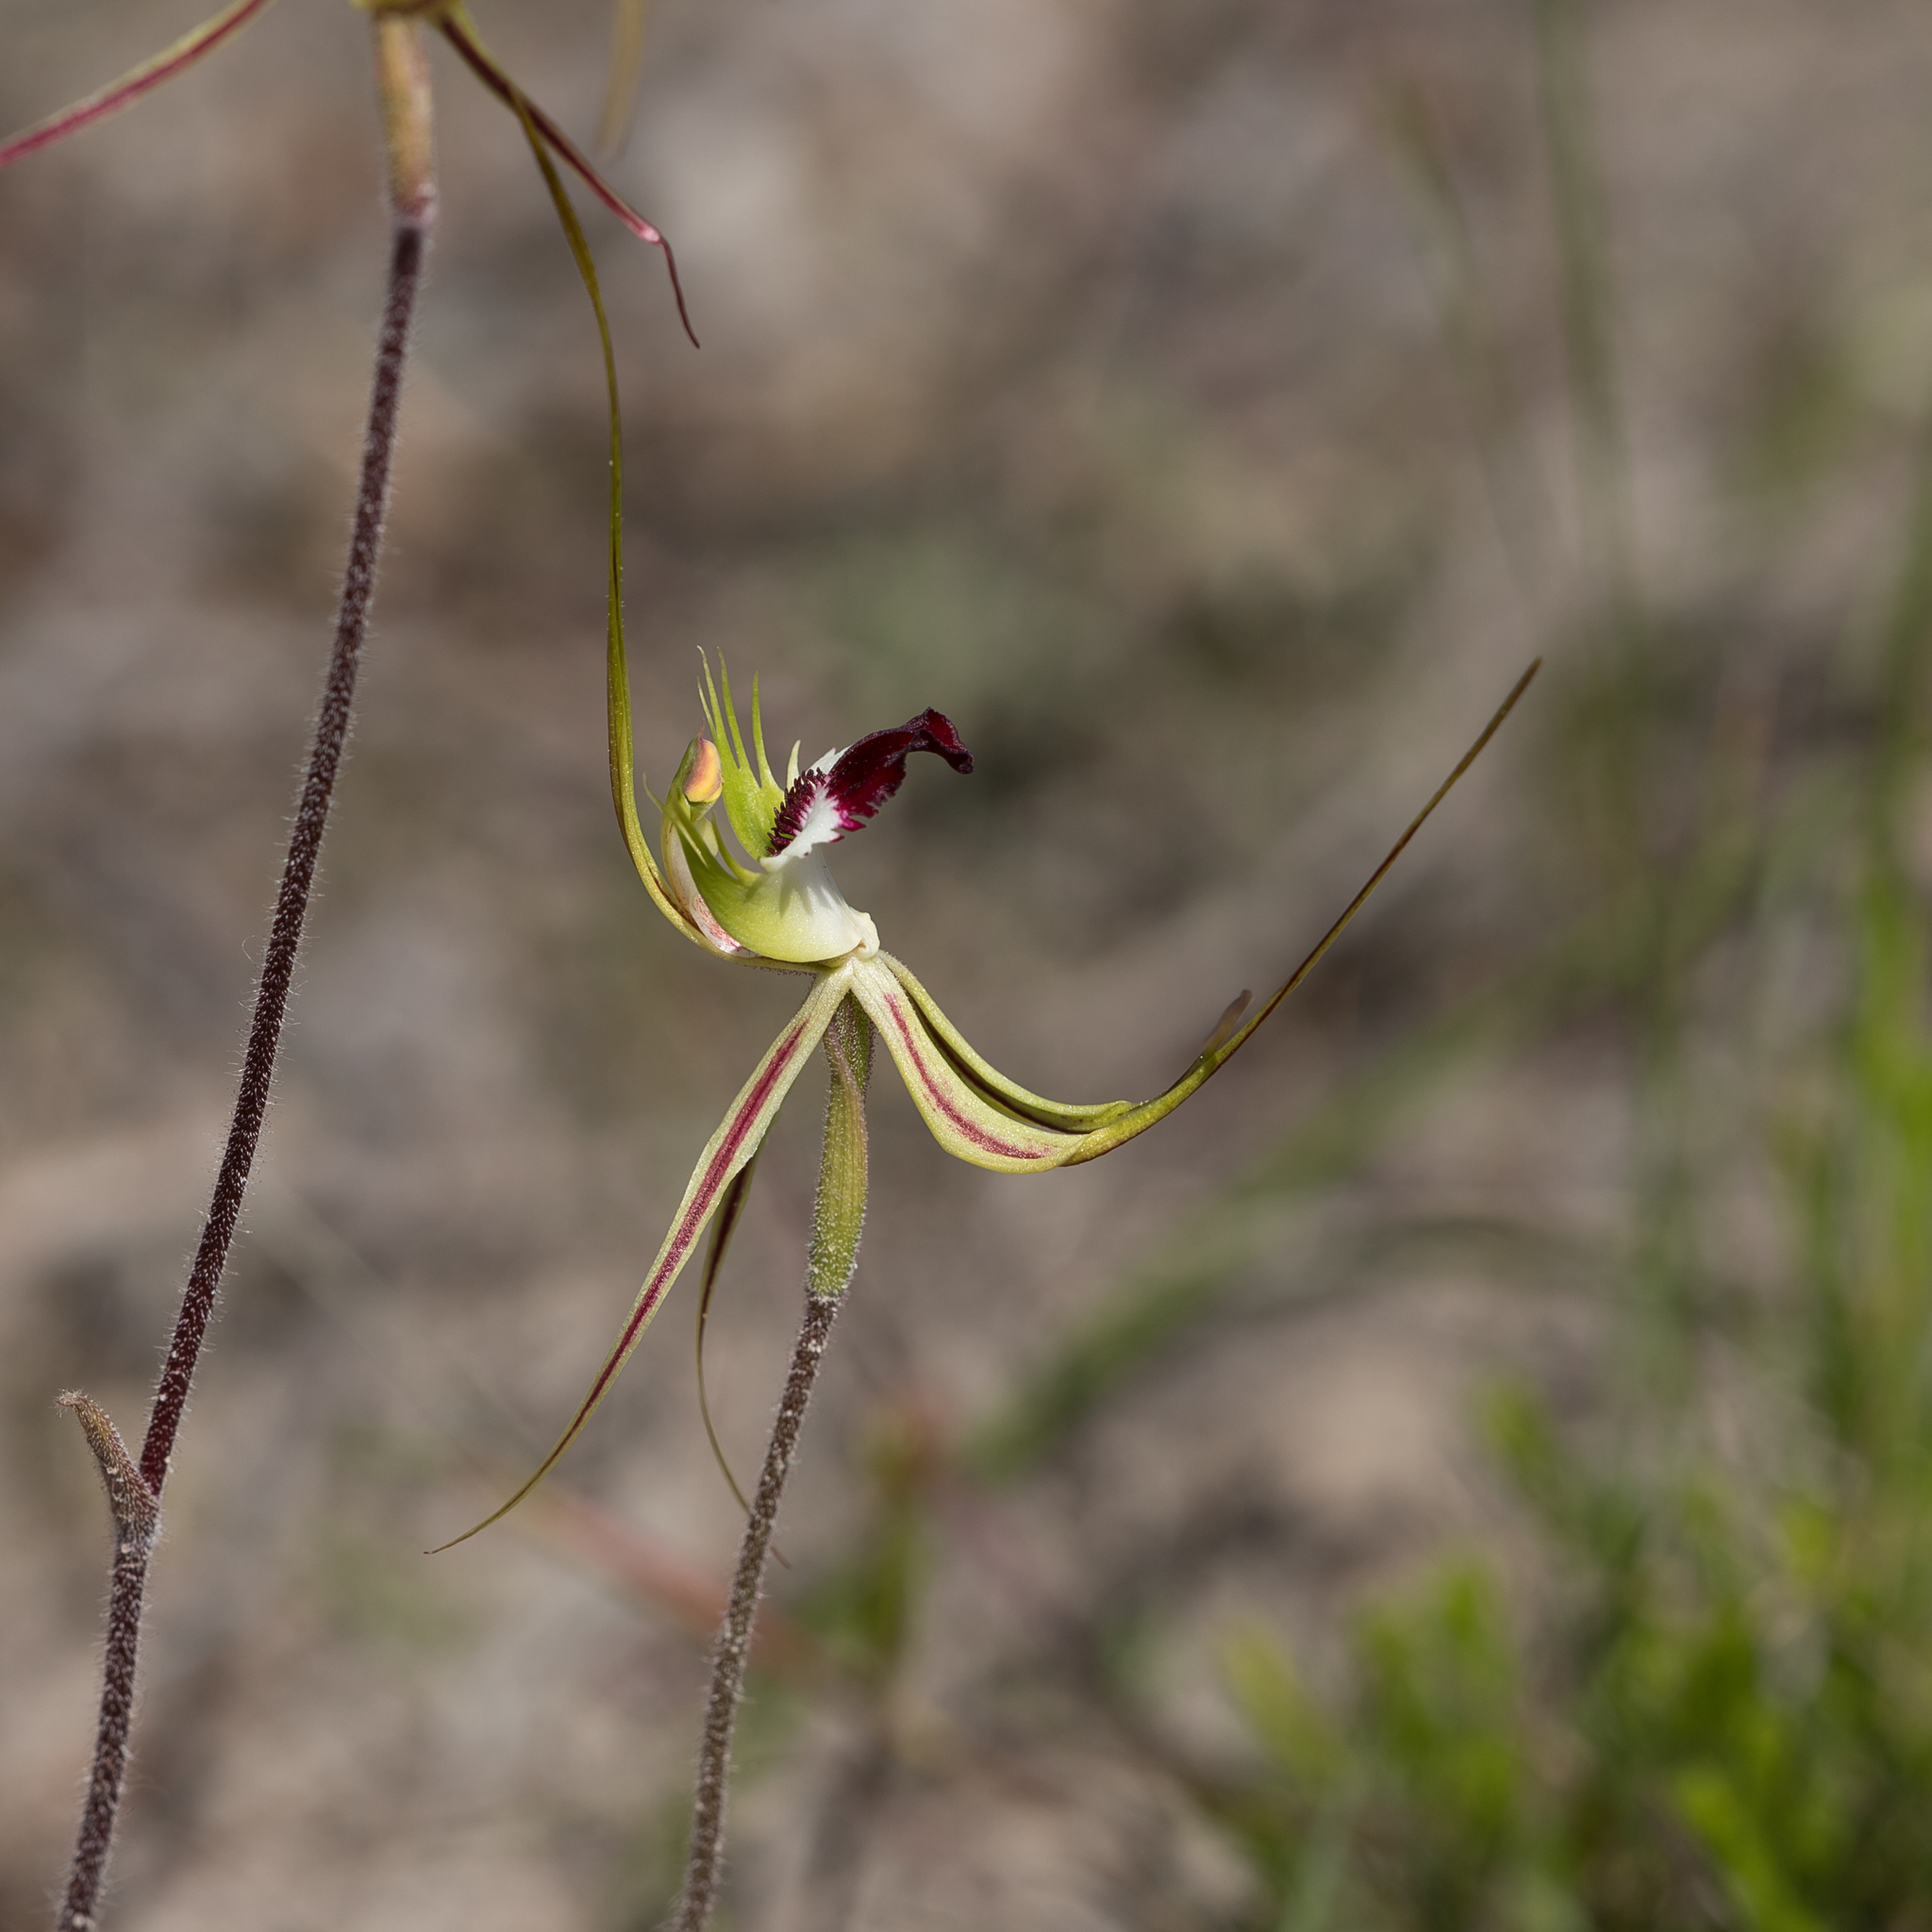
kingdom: Plantae
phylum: Tracheophyta
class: Liliopsida
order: Asparagales
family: Orchidaceae
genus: Caladenia
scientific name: Caladenia tentaculata
